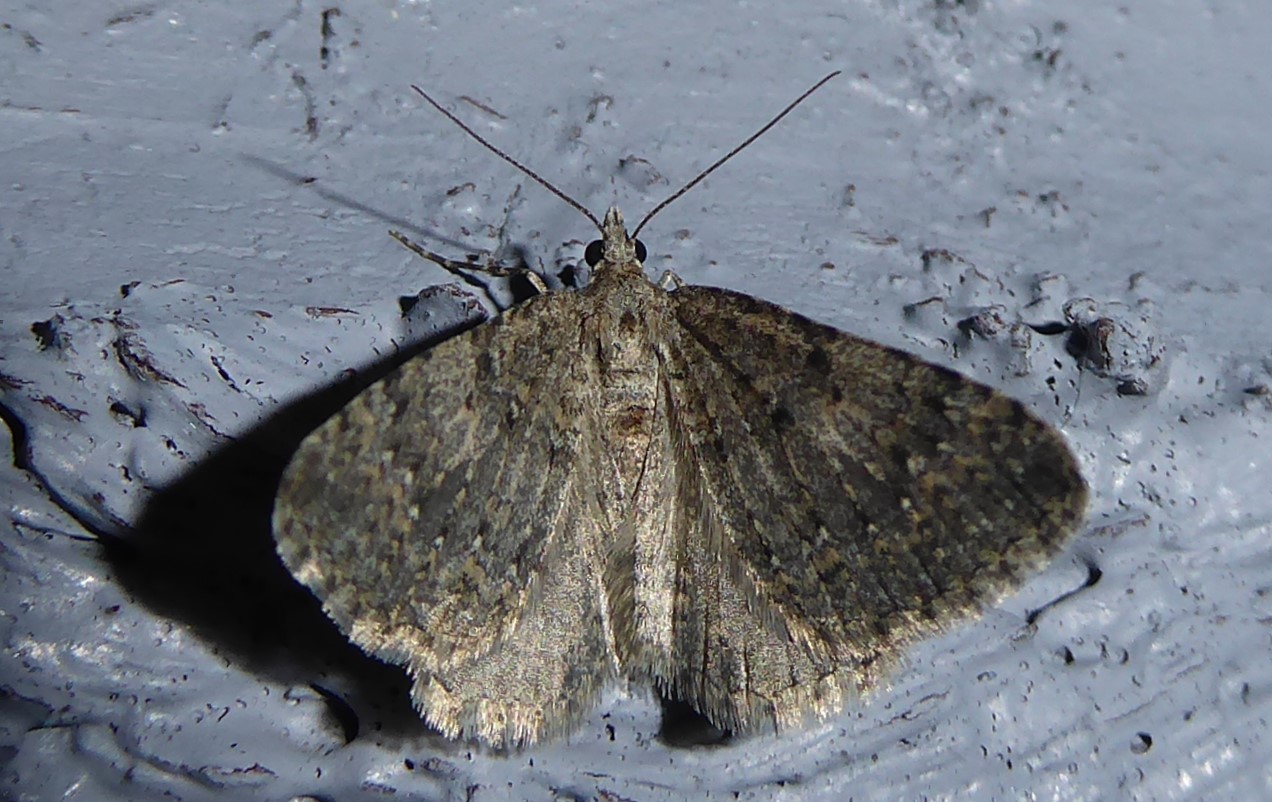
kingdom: Animalia
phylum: Arthropoda
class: Insecta
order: Lepidoptera
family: Geometridae
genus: Helastia
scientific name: Helastia corcularia
